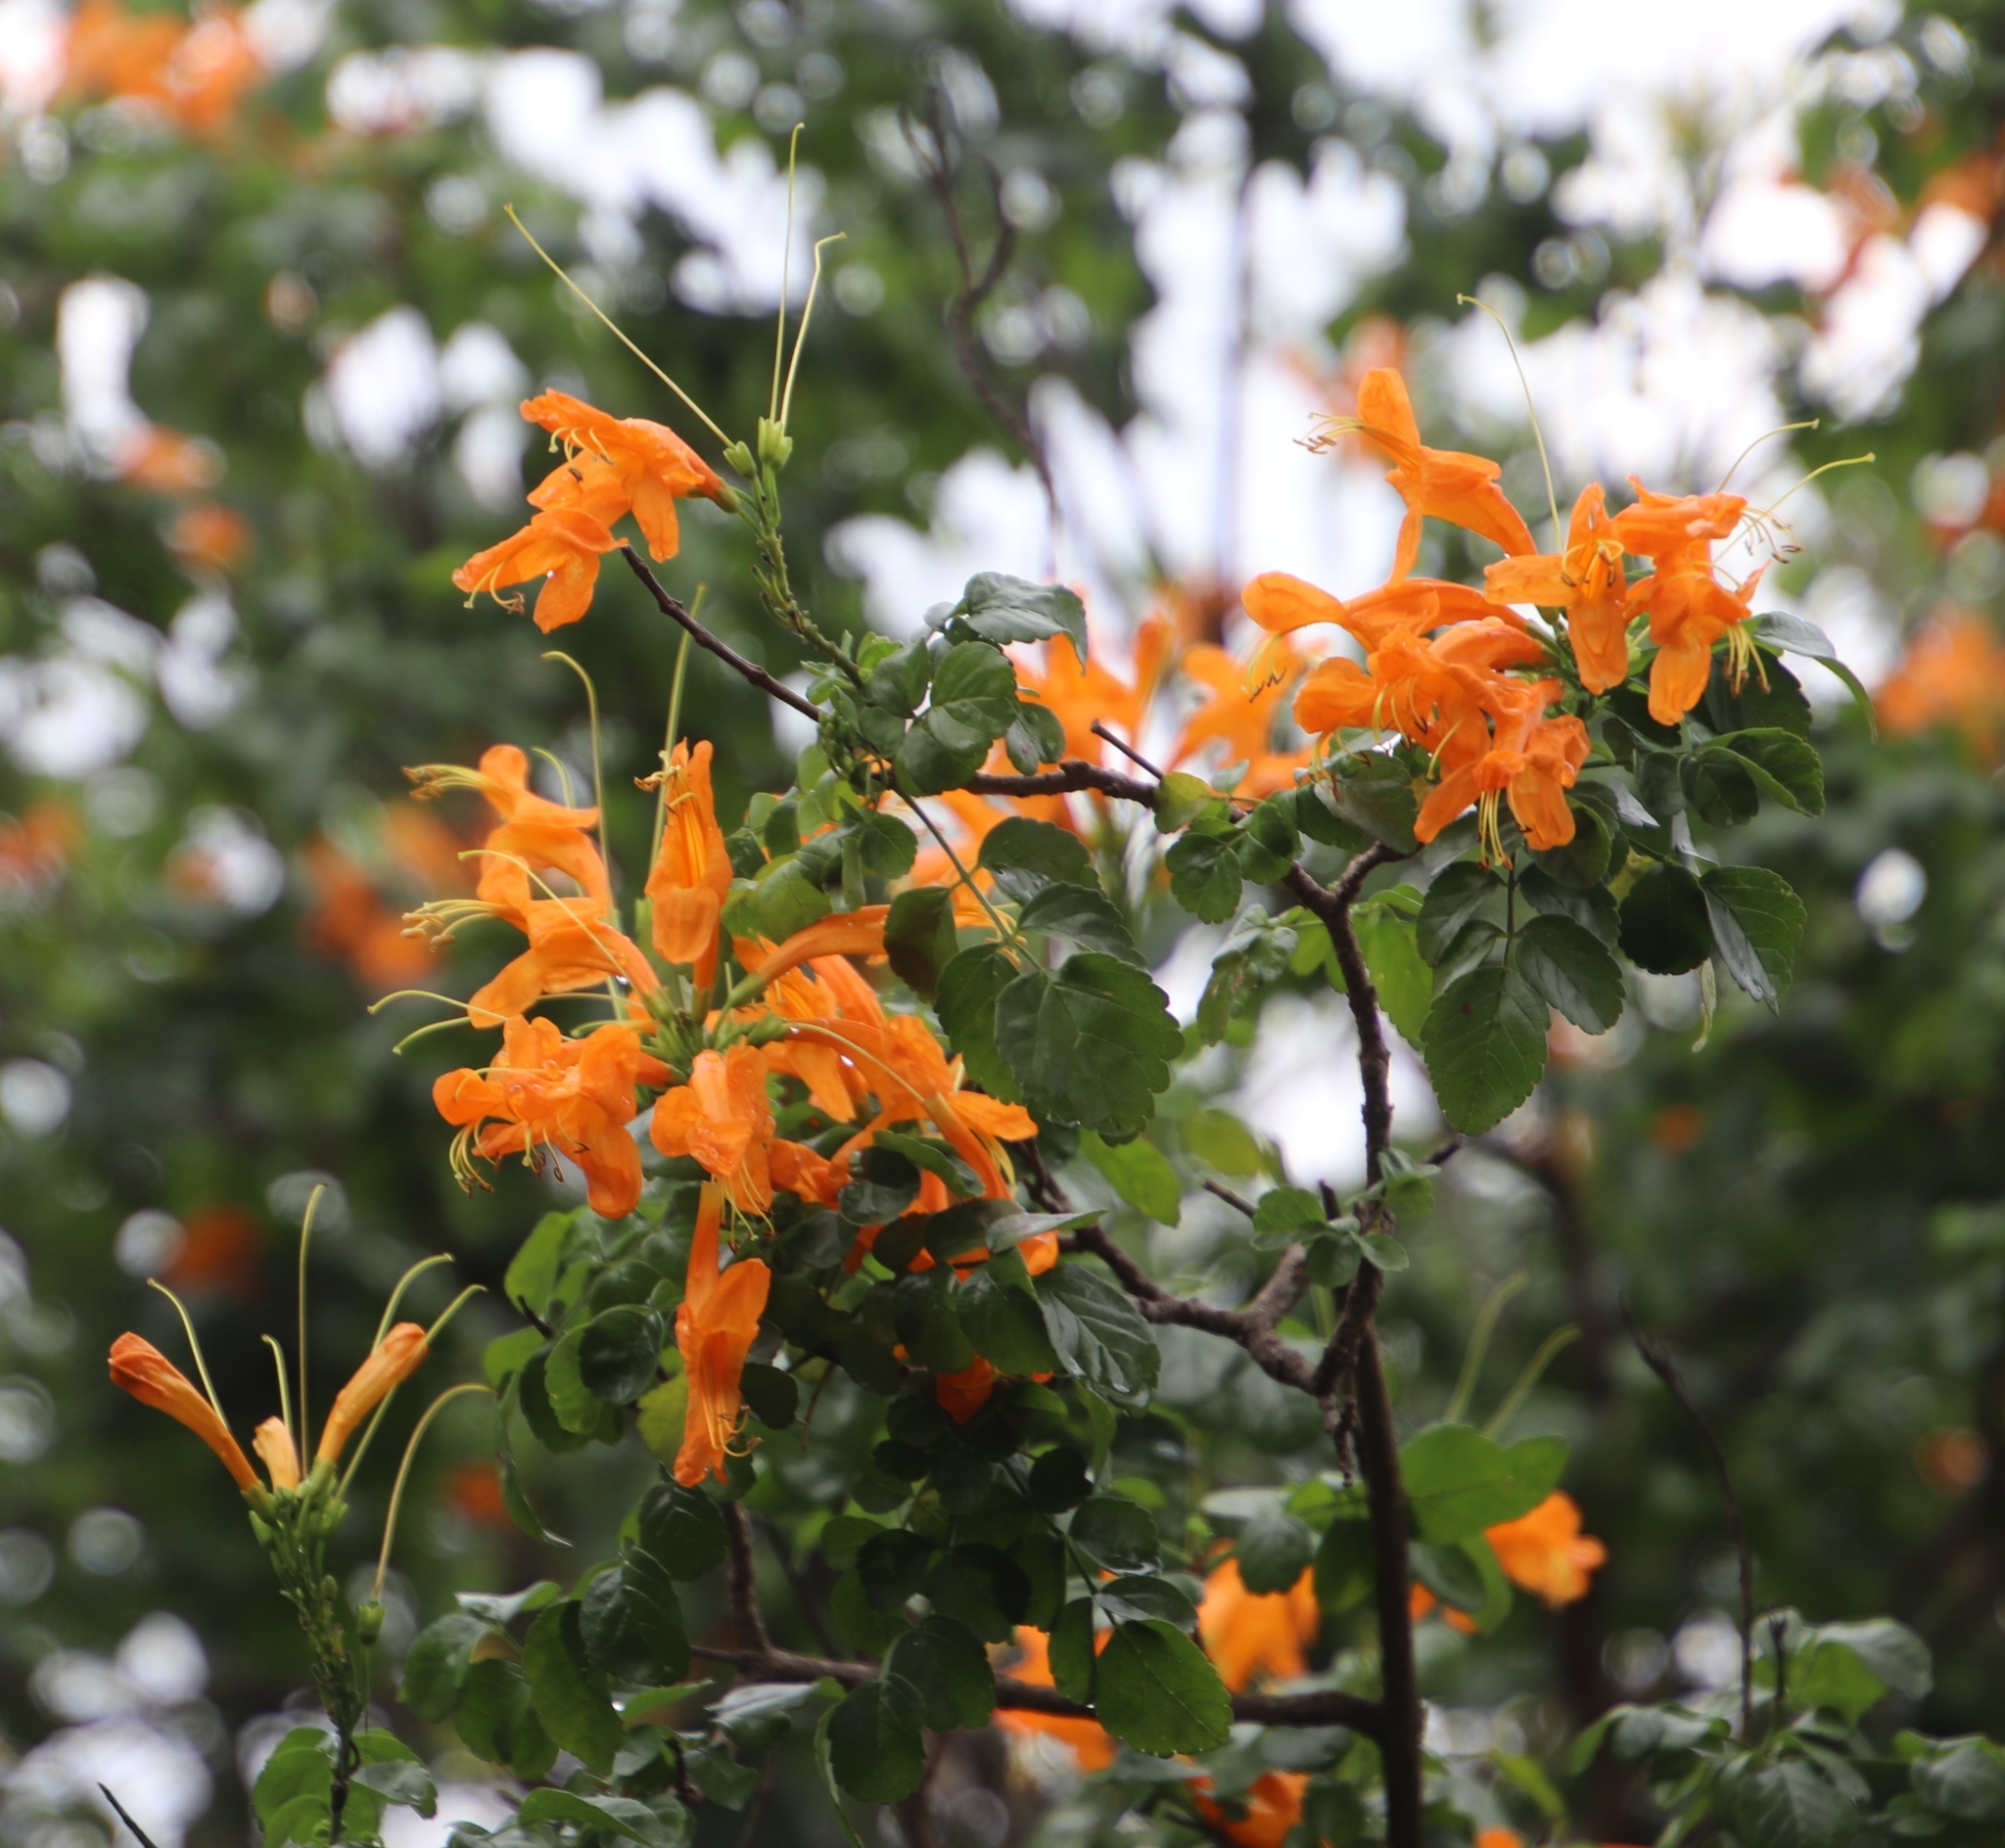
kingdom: Plantae
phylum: Tracheophyta
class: Magnoliopsida
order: Lamiales
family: Bignoniaceae
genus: Tecomaria
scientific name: Tecomaria capensis
